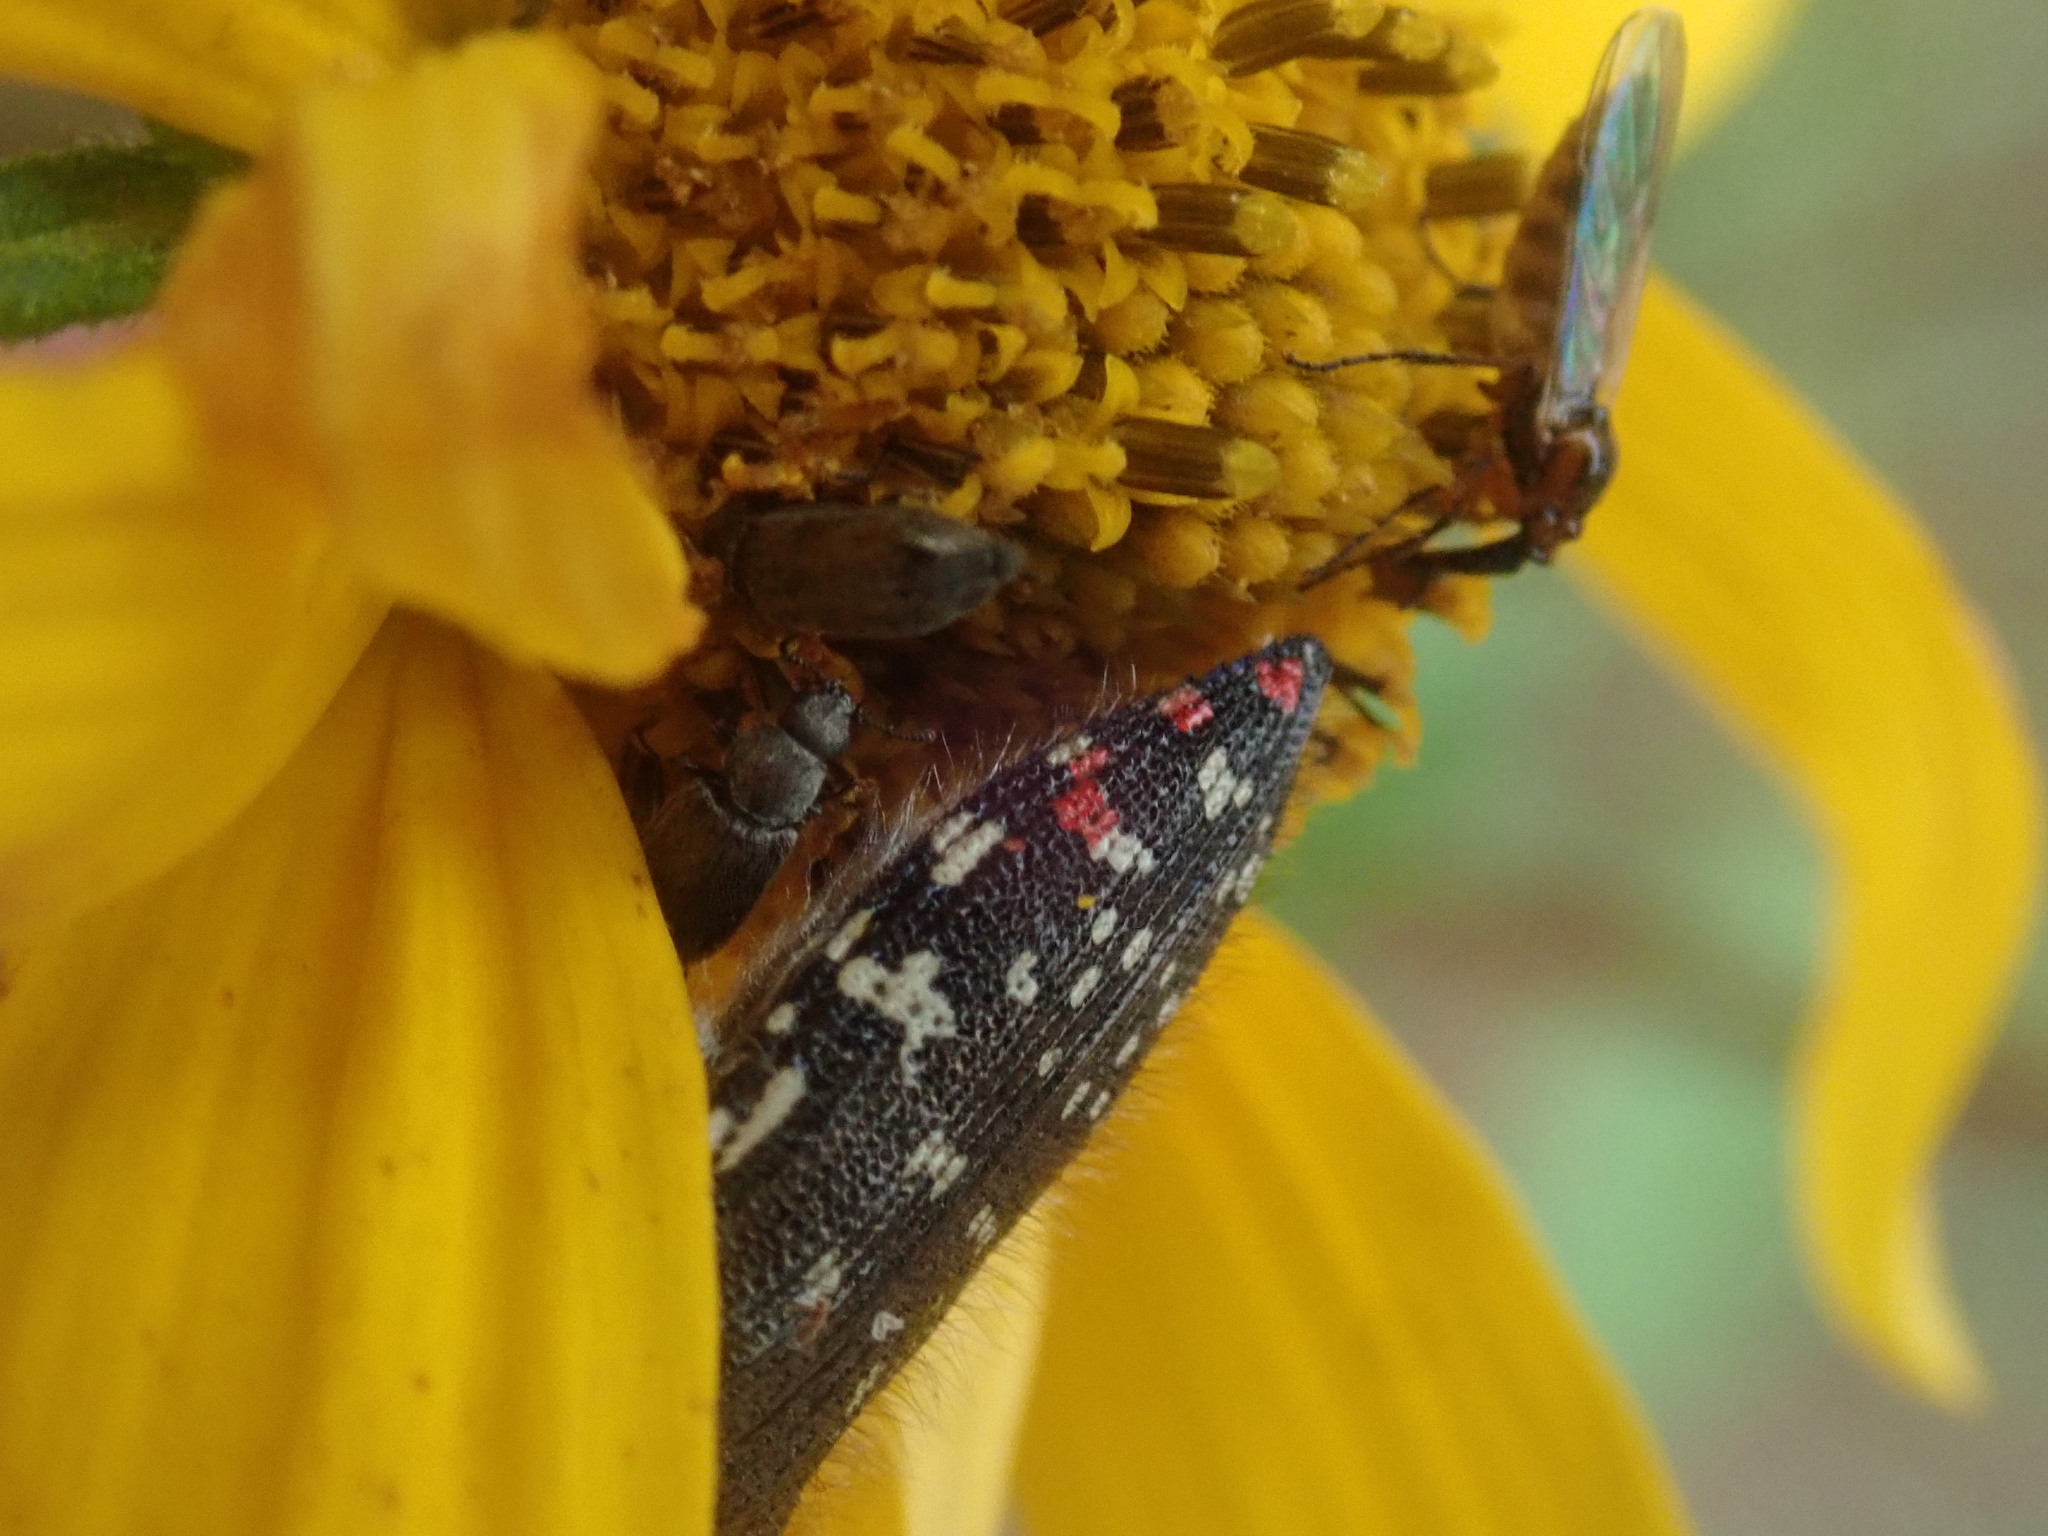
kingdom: Animalia
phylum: Arthropoda
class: Insecta
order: Coleoptera
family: Buprestidae
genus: Acmaeodera
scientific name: Acmaeodera rubronotata
